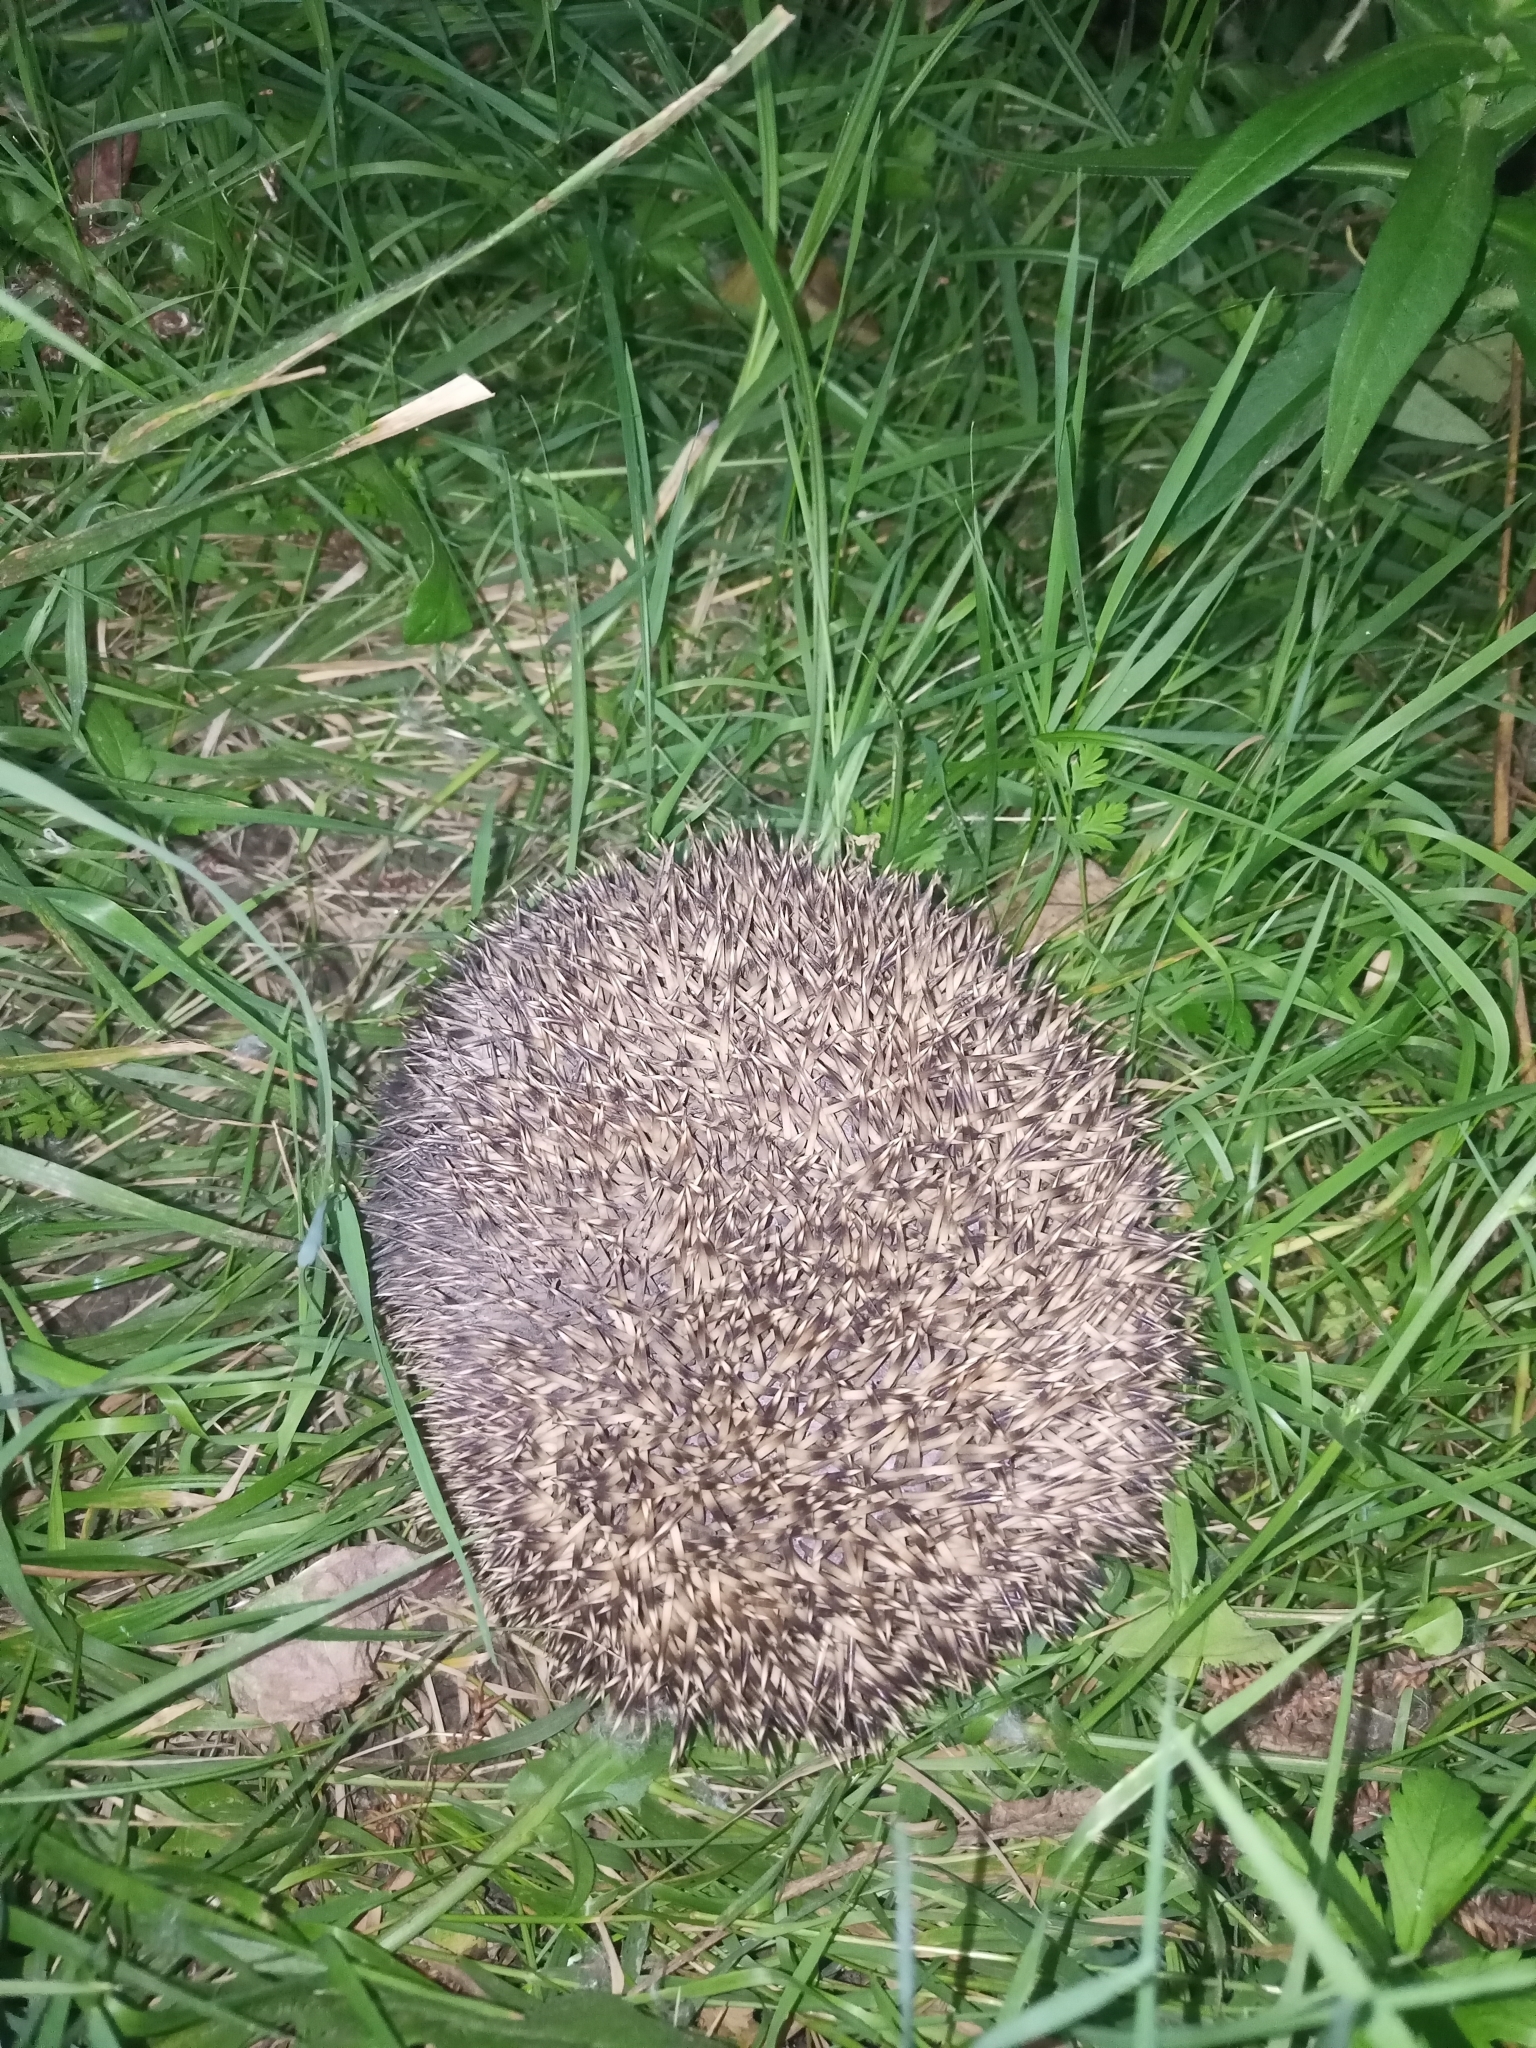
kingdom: Animalia
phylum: Chordata
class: Mammalia
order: Erinaceomorpha
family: Erinaceidae
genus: Erinaceus
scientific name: Erinaceus roumanicus
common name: Northern white-breasted hedgehog
